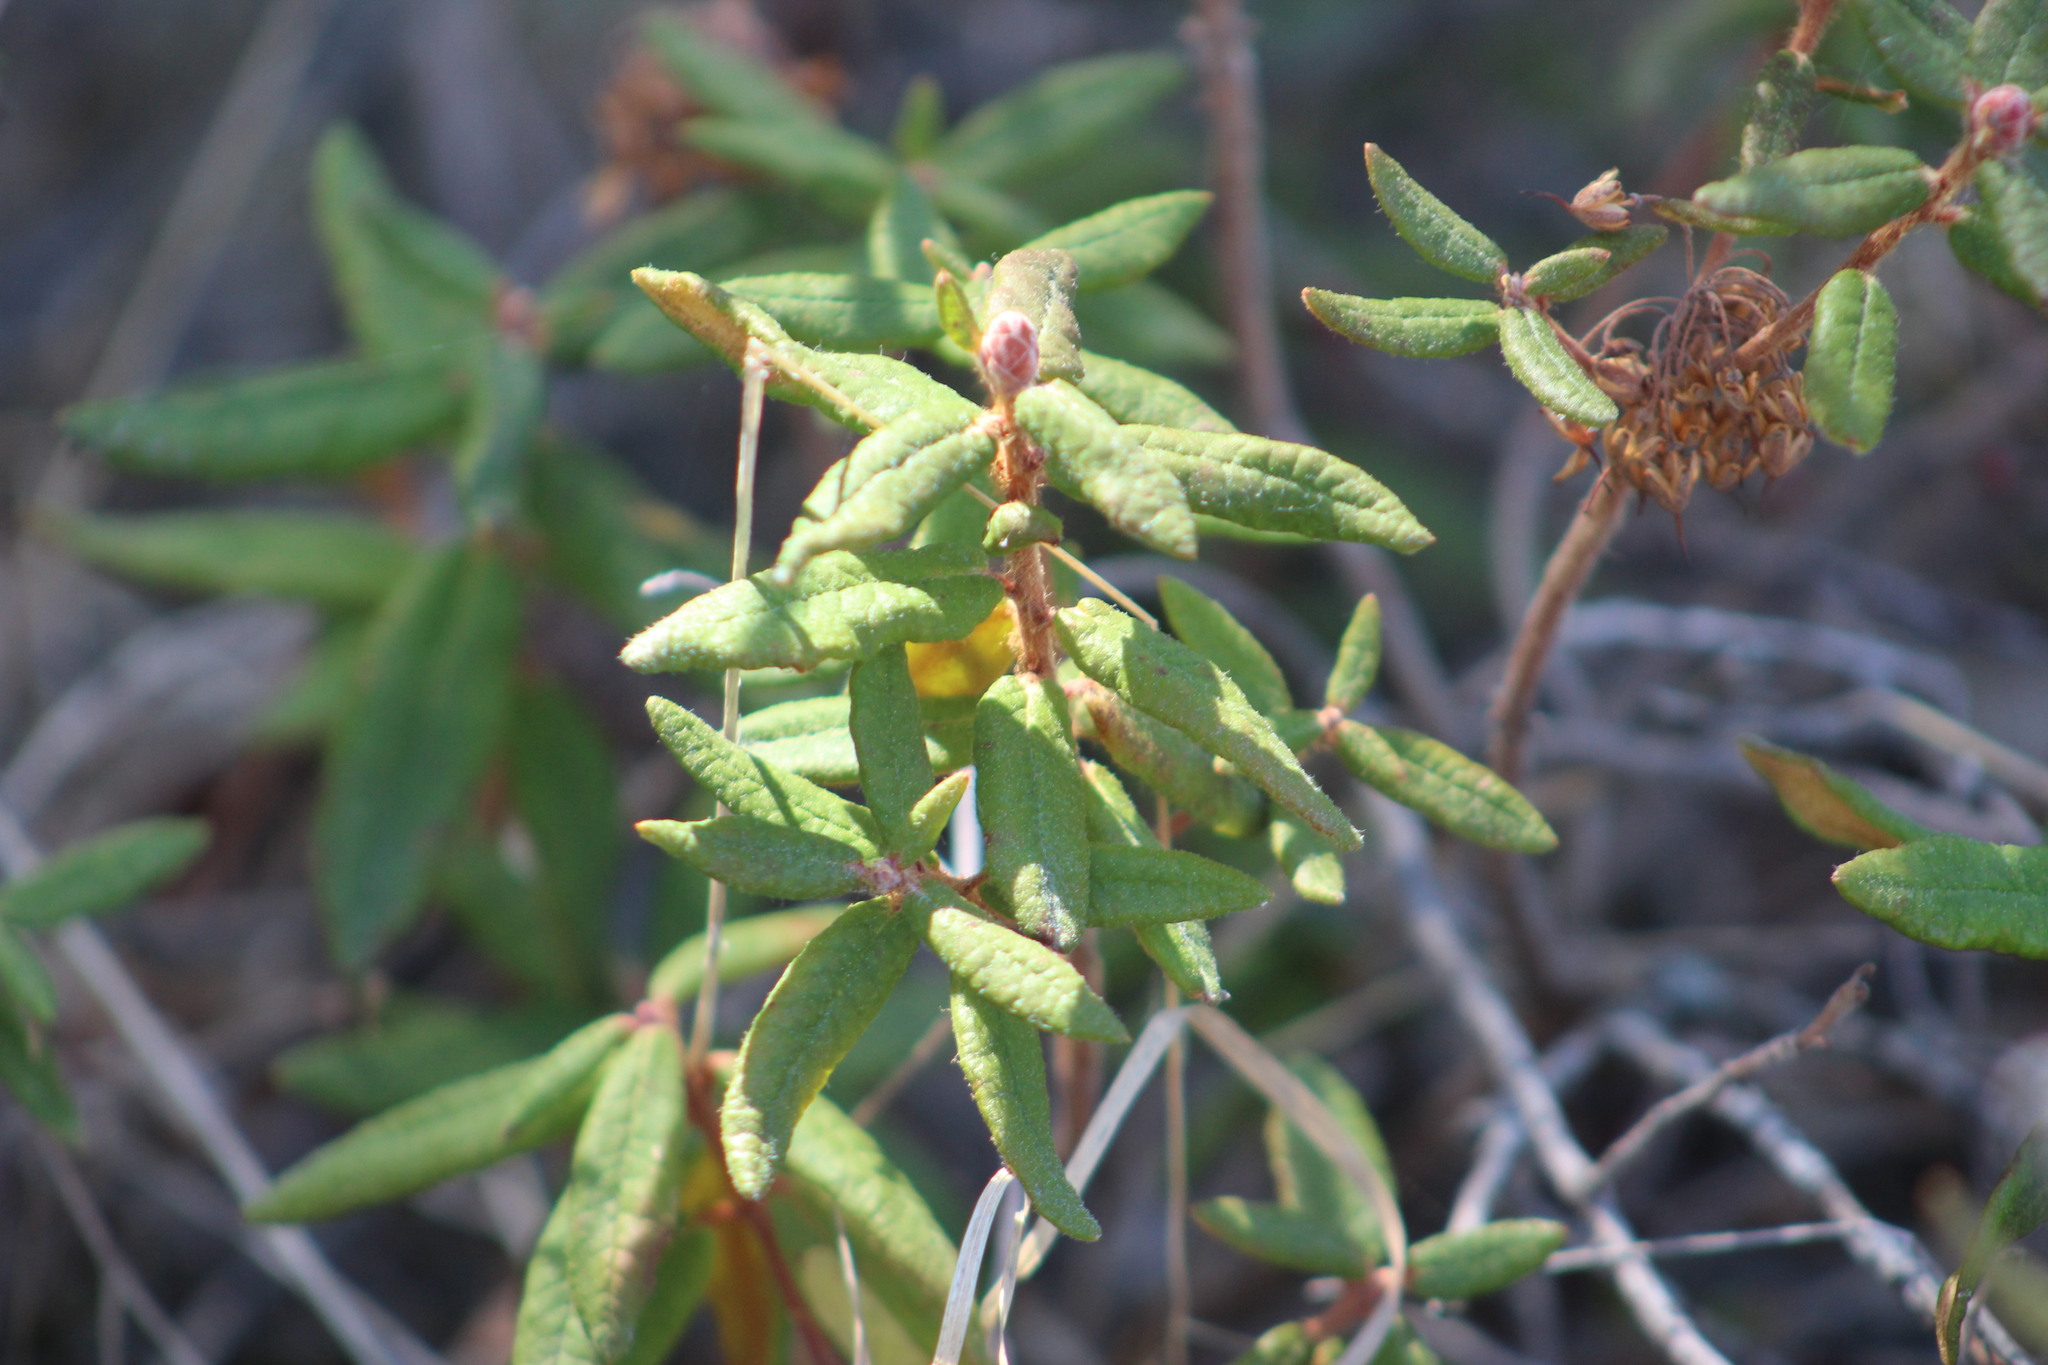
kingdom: Plantae
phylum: Tracheophyta
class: Magnoliopsida
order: Ericales
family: Ericaceae
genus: Rhododendron
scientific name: Rhododendron groenlandicum
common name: Bog labrador tea
